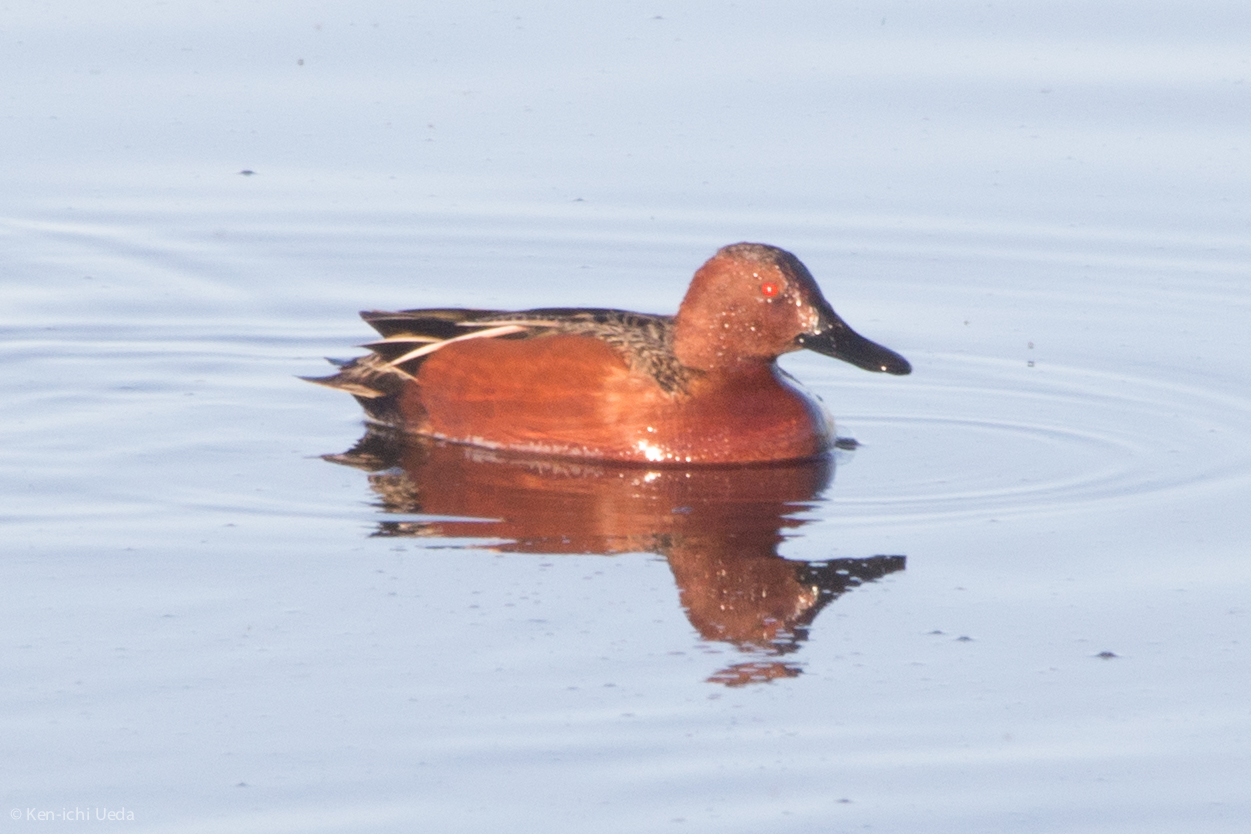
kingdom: Animalia
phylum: Chordata
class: Aves
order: Anseriformes
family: Anatidae
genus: Spatula
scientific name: Spatula cyanoptera
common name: Cinnamon teal
